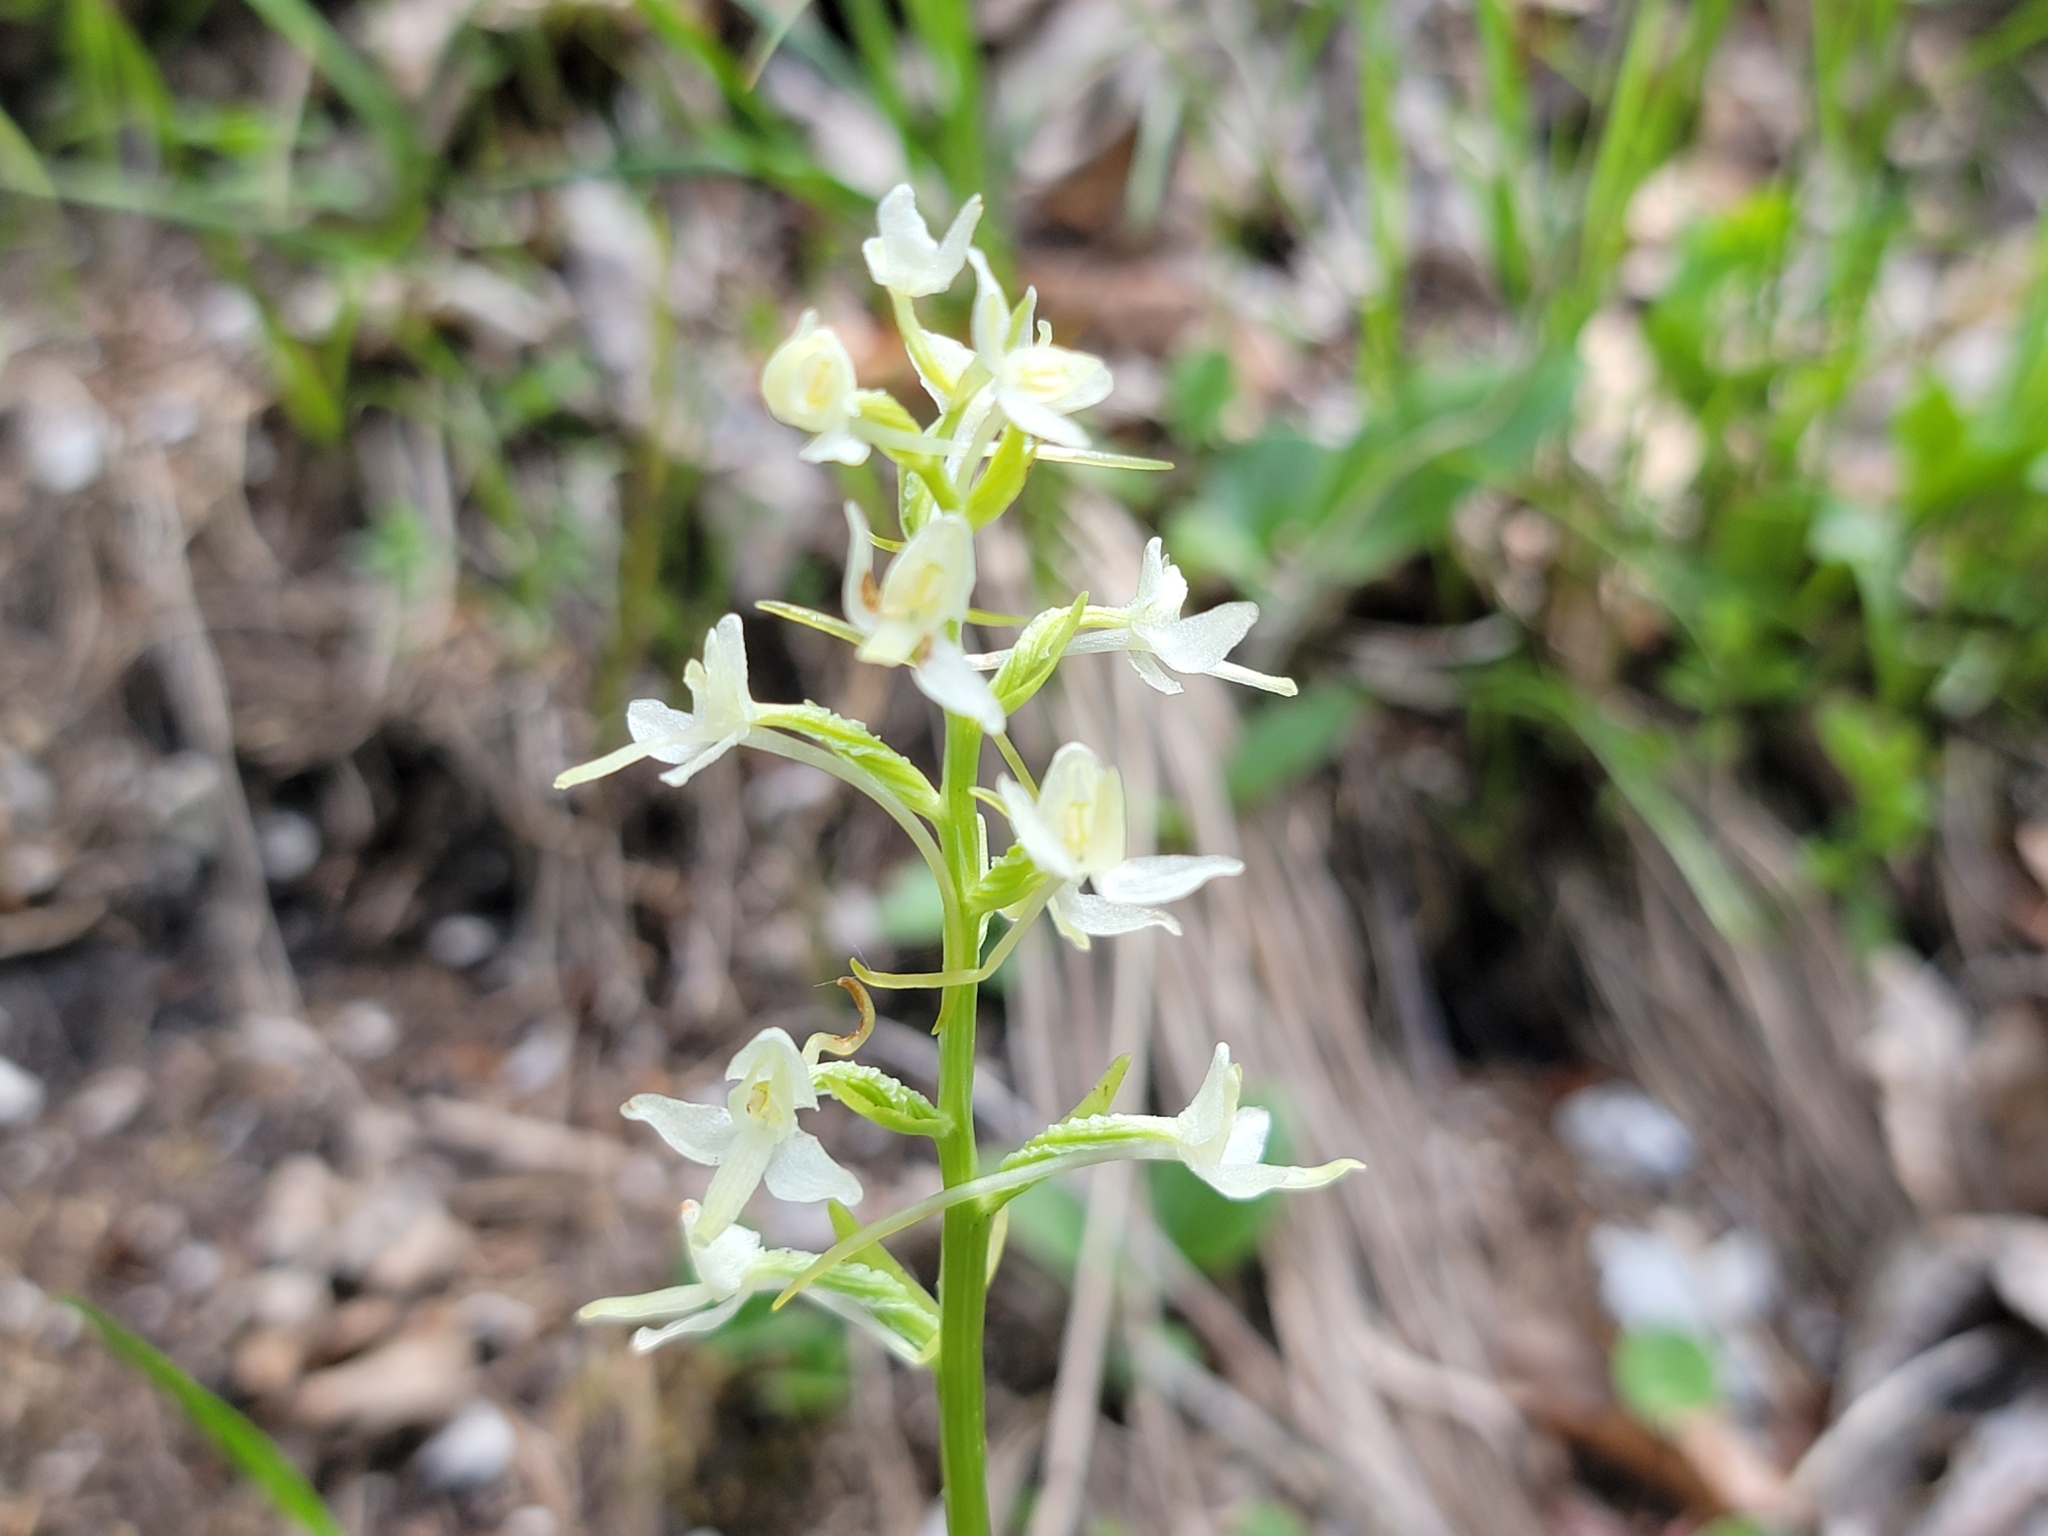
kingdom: Plantae
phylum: Tracheophyta
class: Liliopsida
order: Asparagales
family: Orchidaceae
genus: Platanthera
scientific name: Platanthera bifolia
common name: Lesser butterfly-orchid
